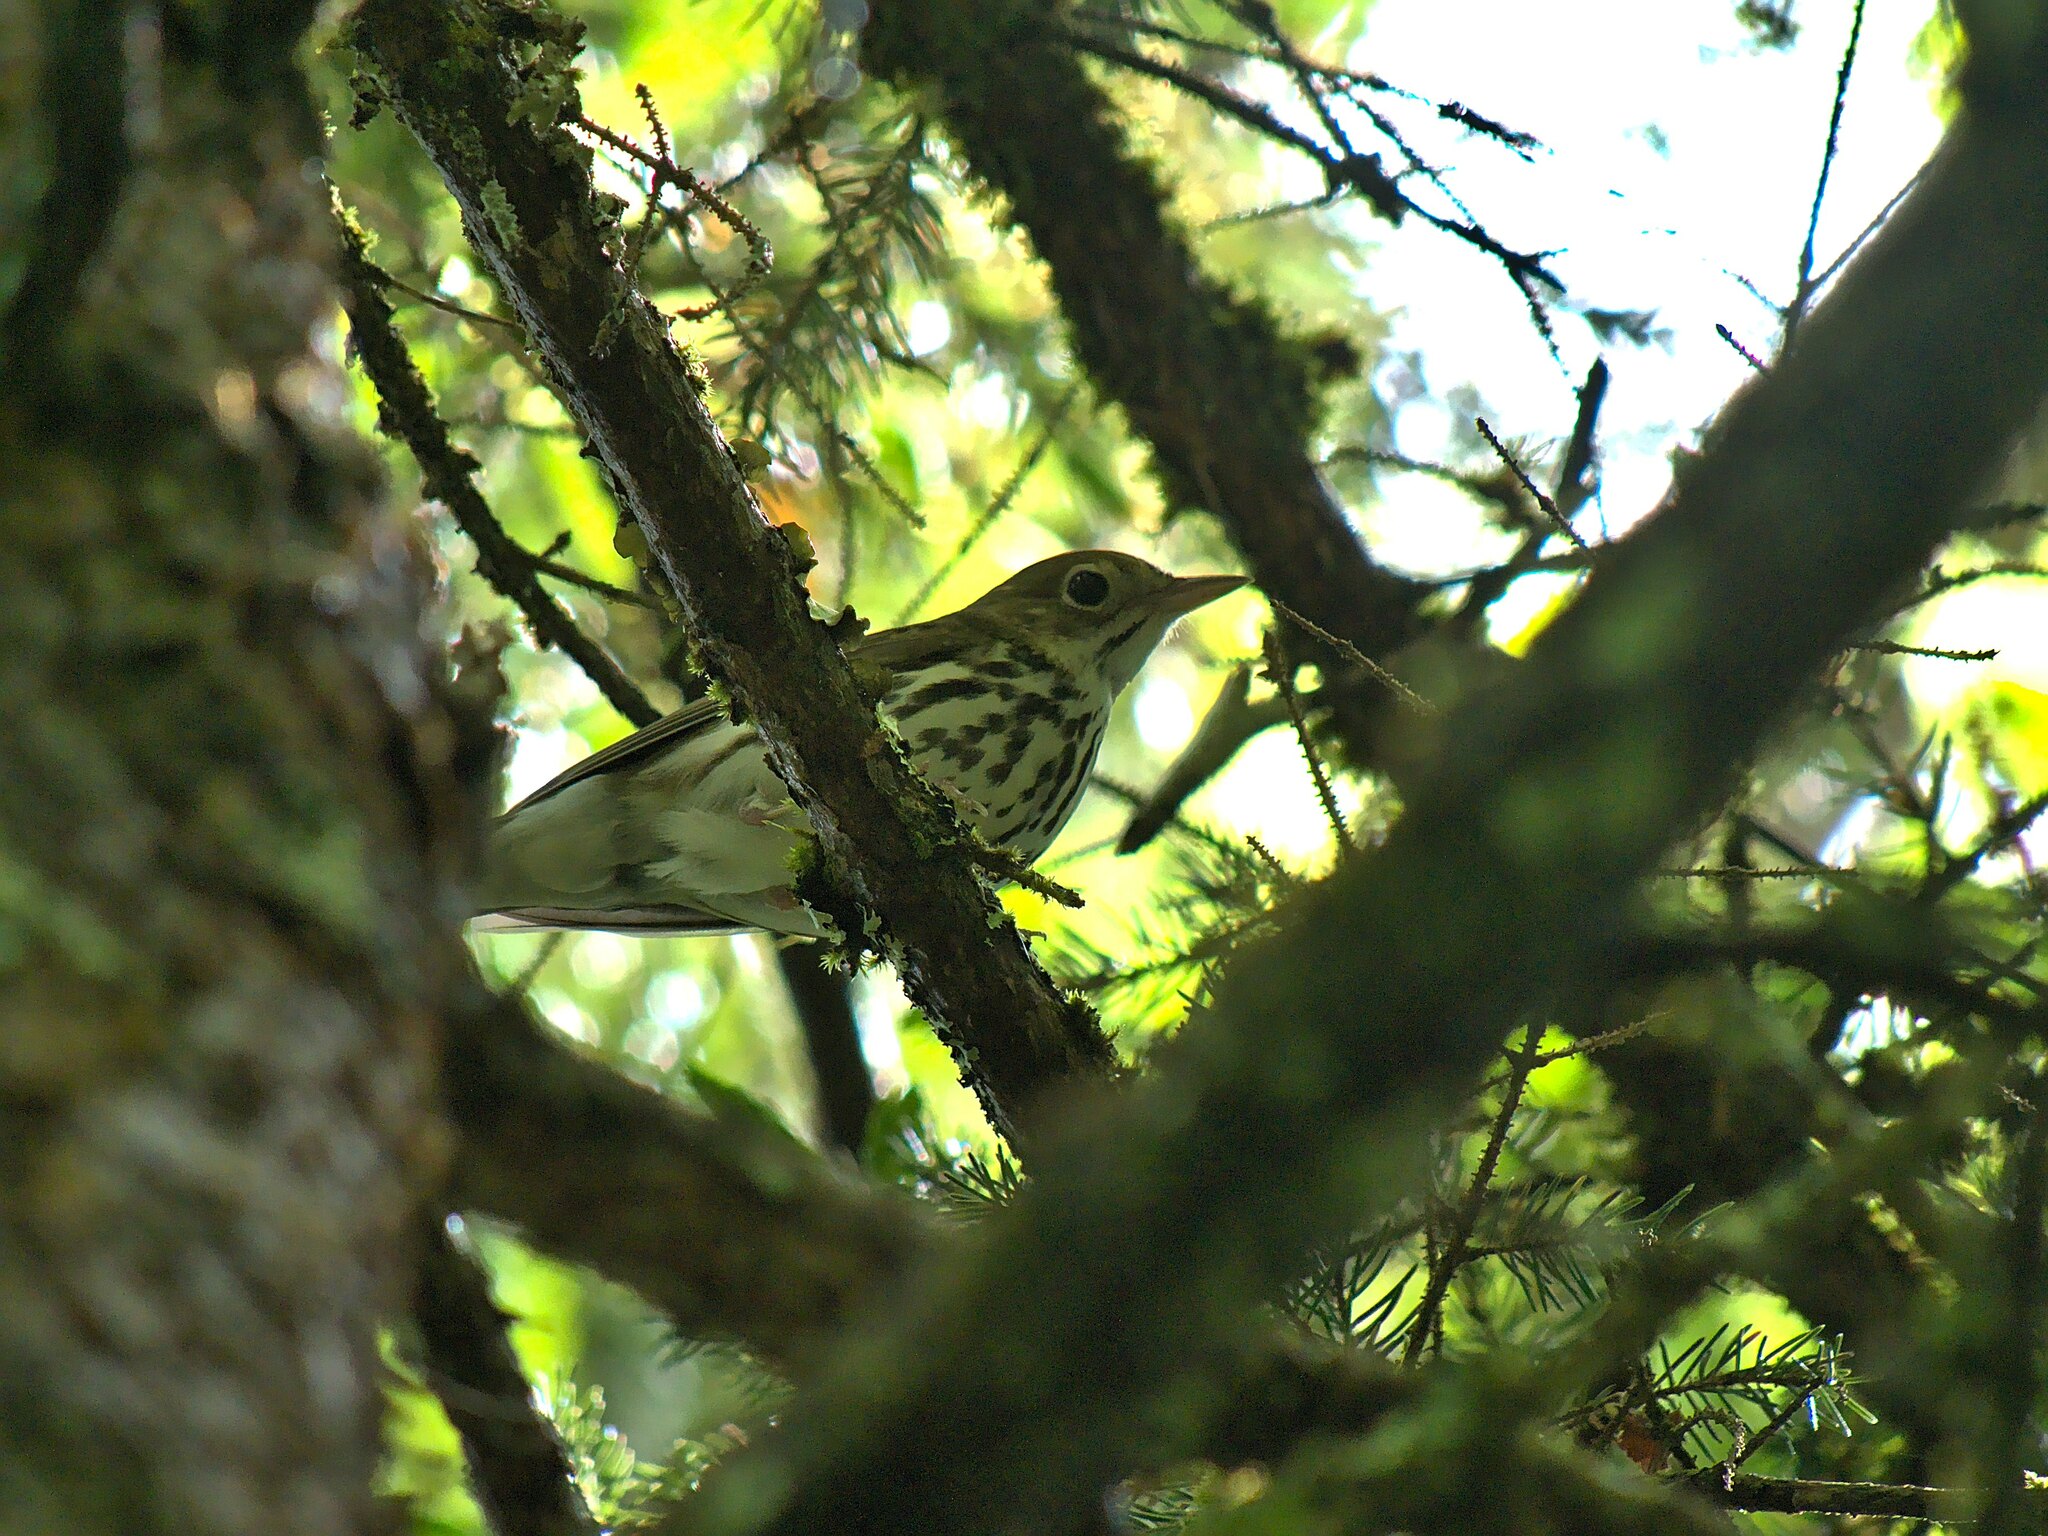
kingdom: Animalia
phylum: Chordata
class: Aves
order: Passeriformes
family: Parulidae
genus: Seiurus
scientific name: Seiurus aurocapilla
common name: Ovenbird
